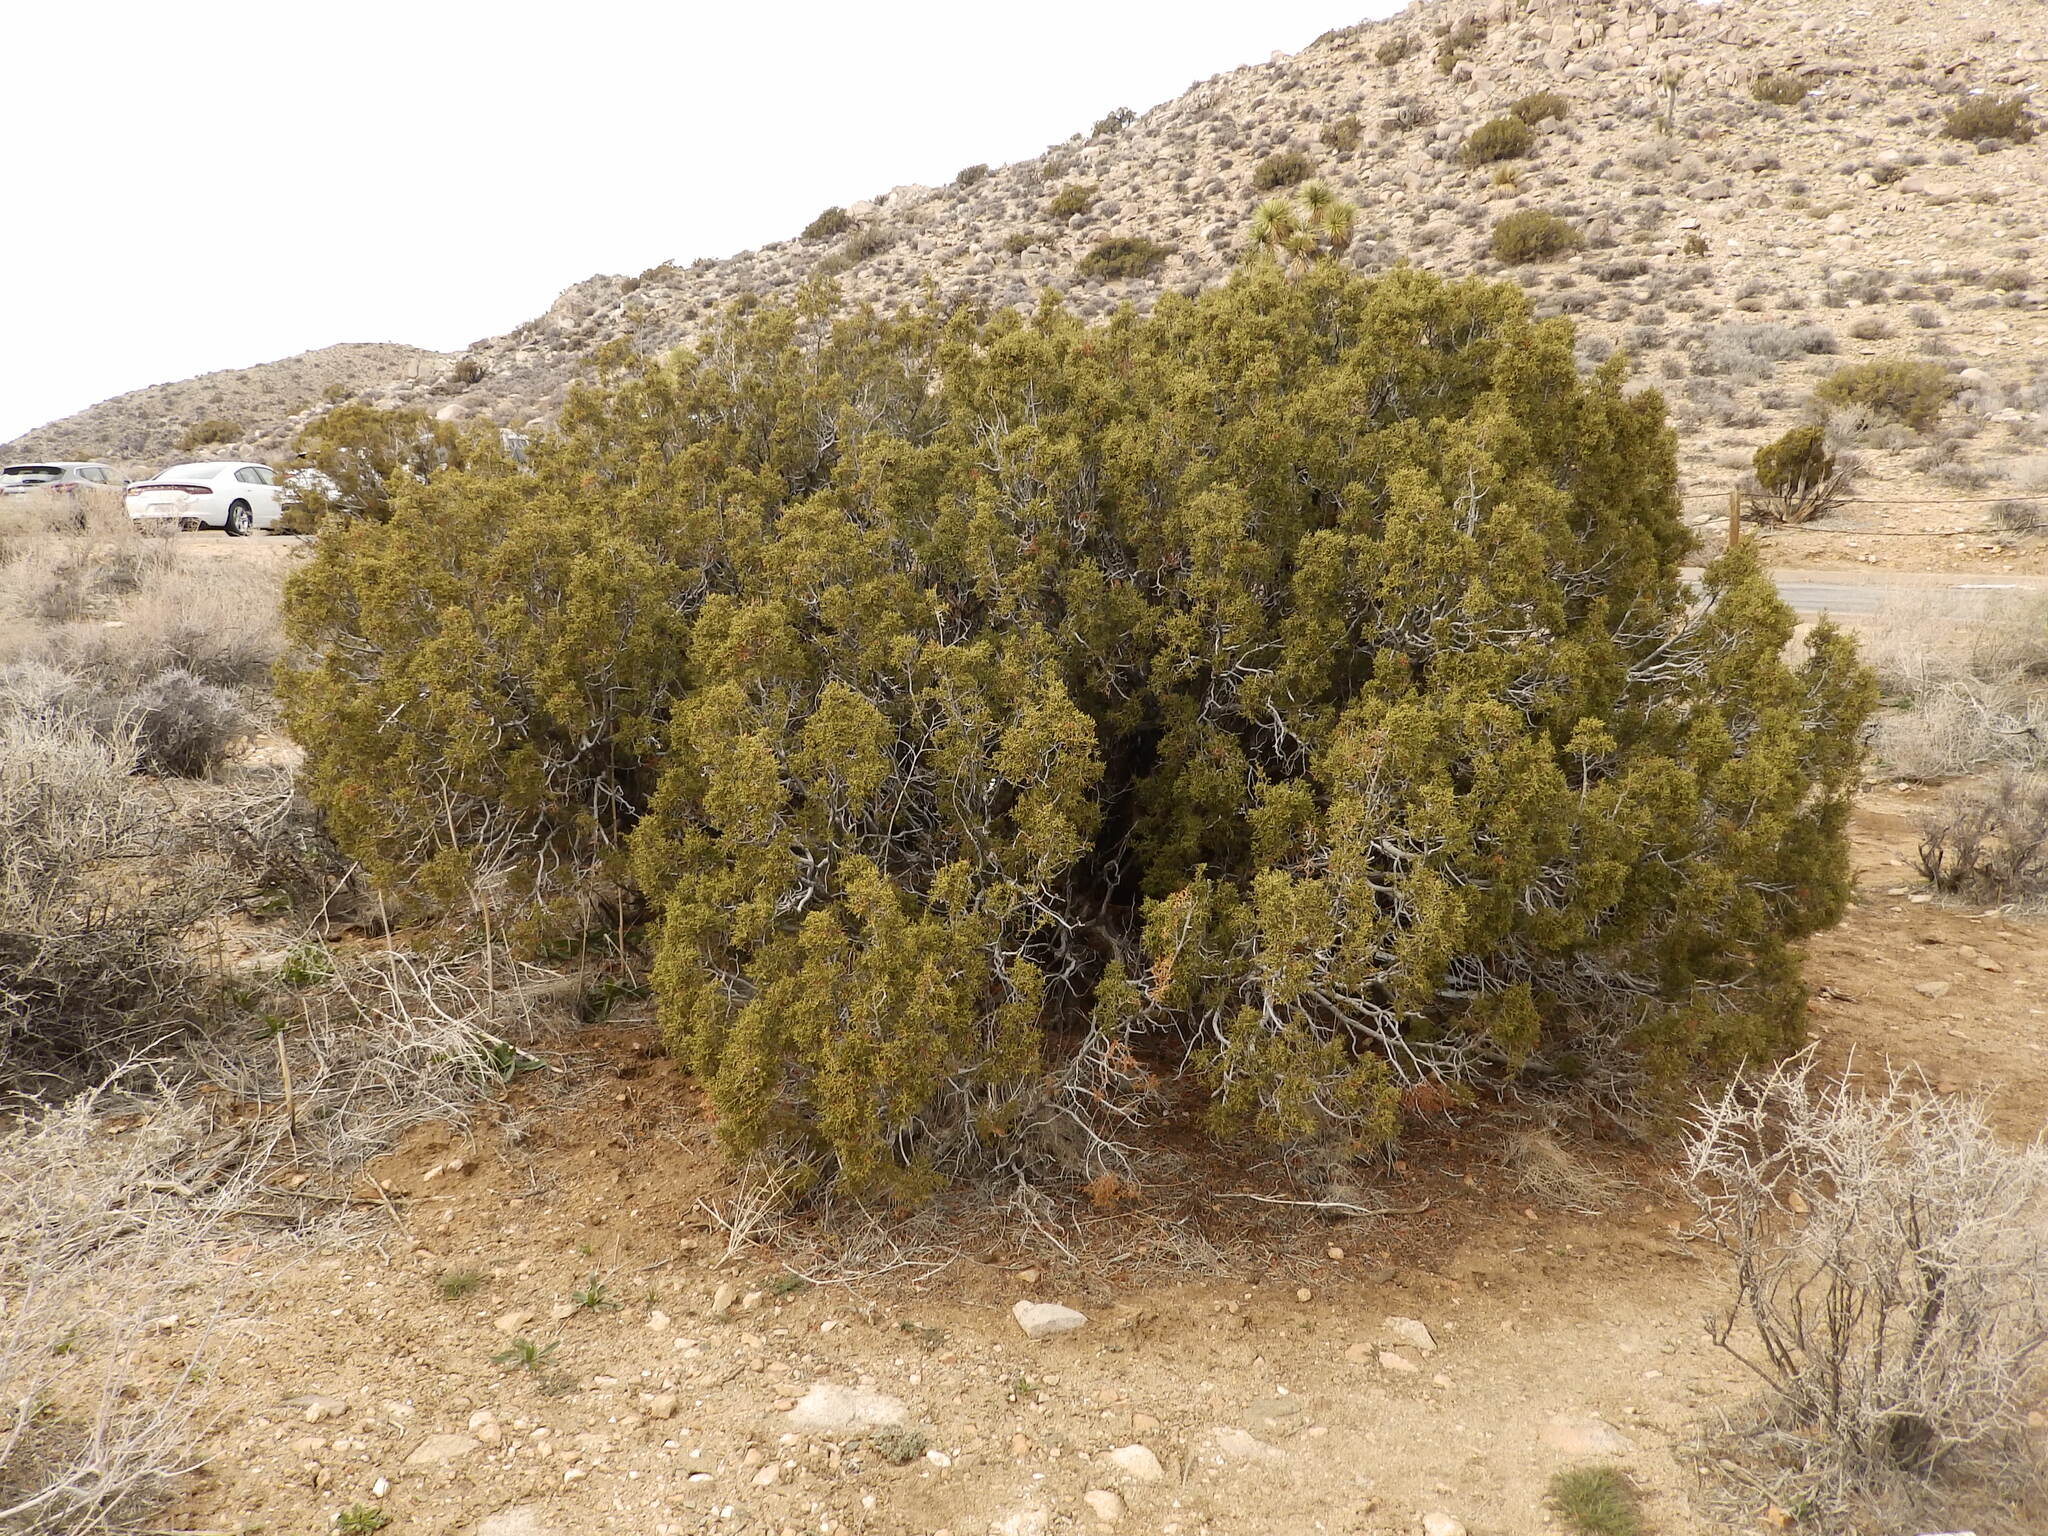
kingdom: Plantae
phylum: Tracheophyta
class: Pinopsida
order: Pinales
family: Cupressaceae
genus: Juniperus
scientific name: Juniperus californica
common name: California juniper
